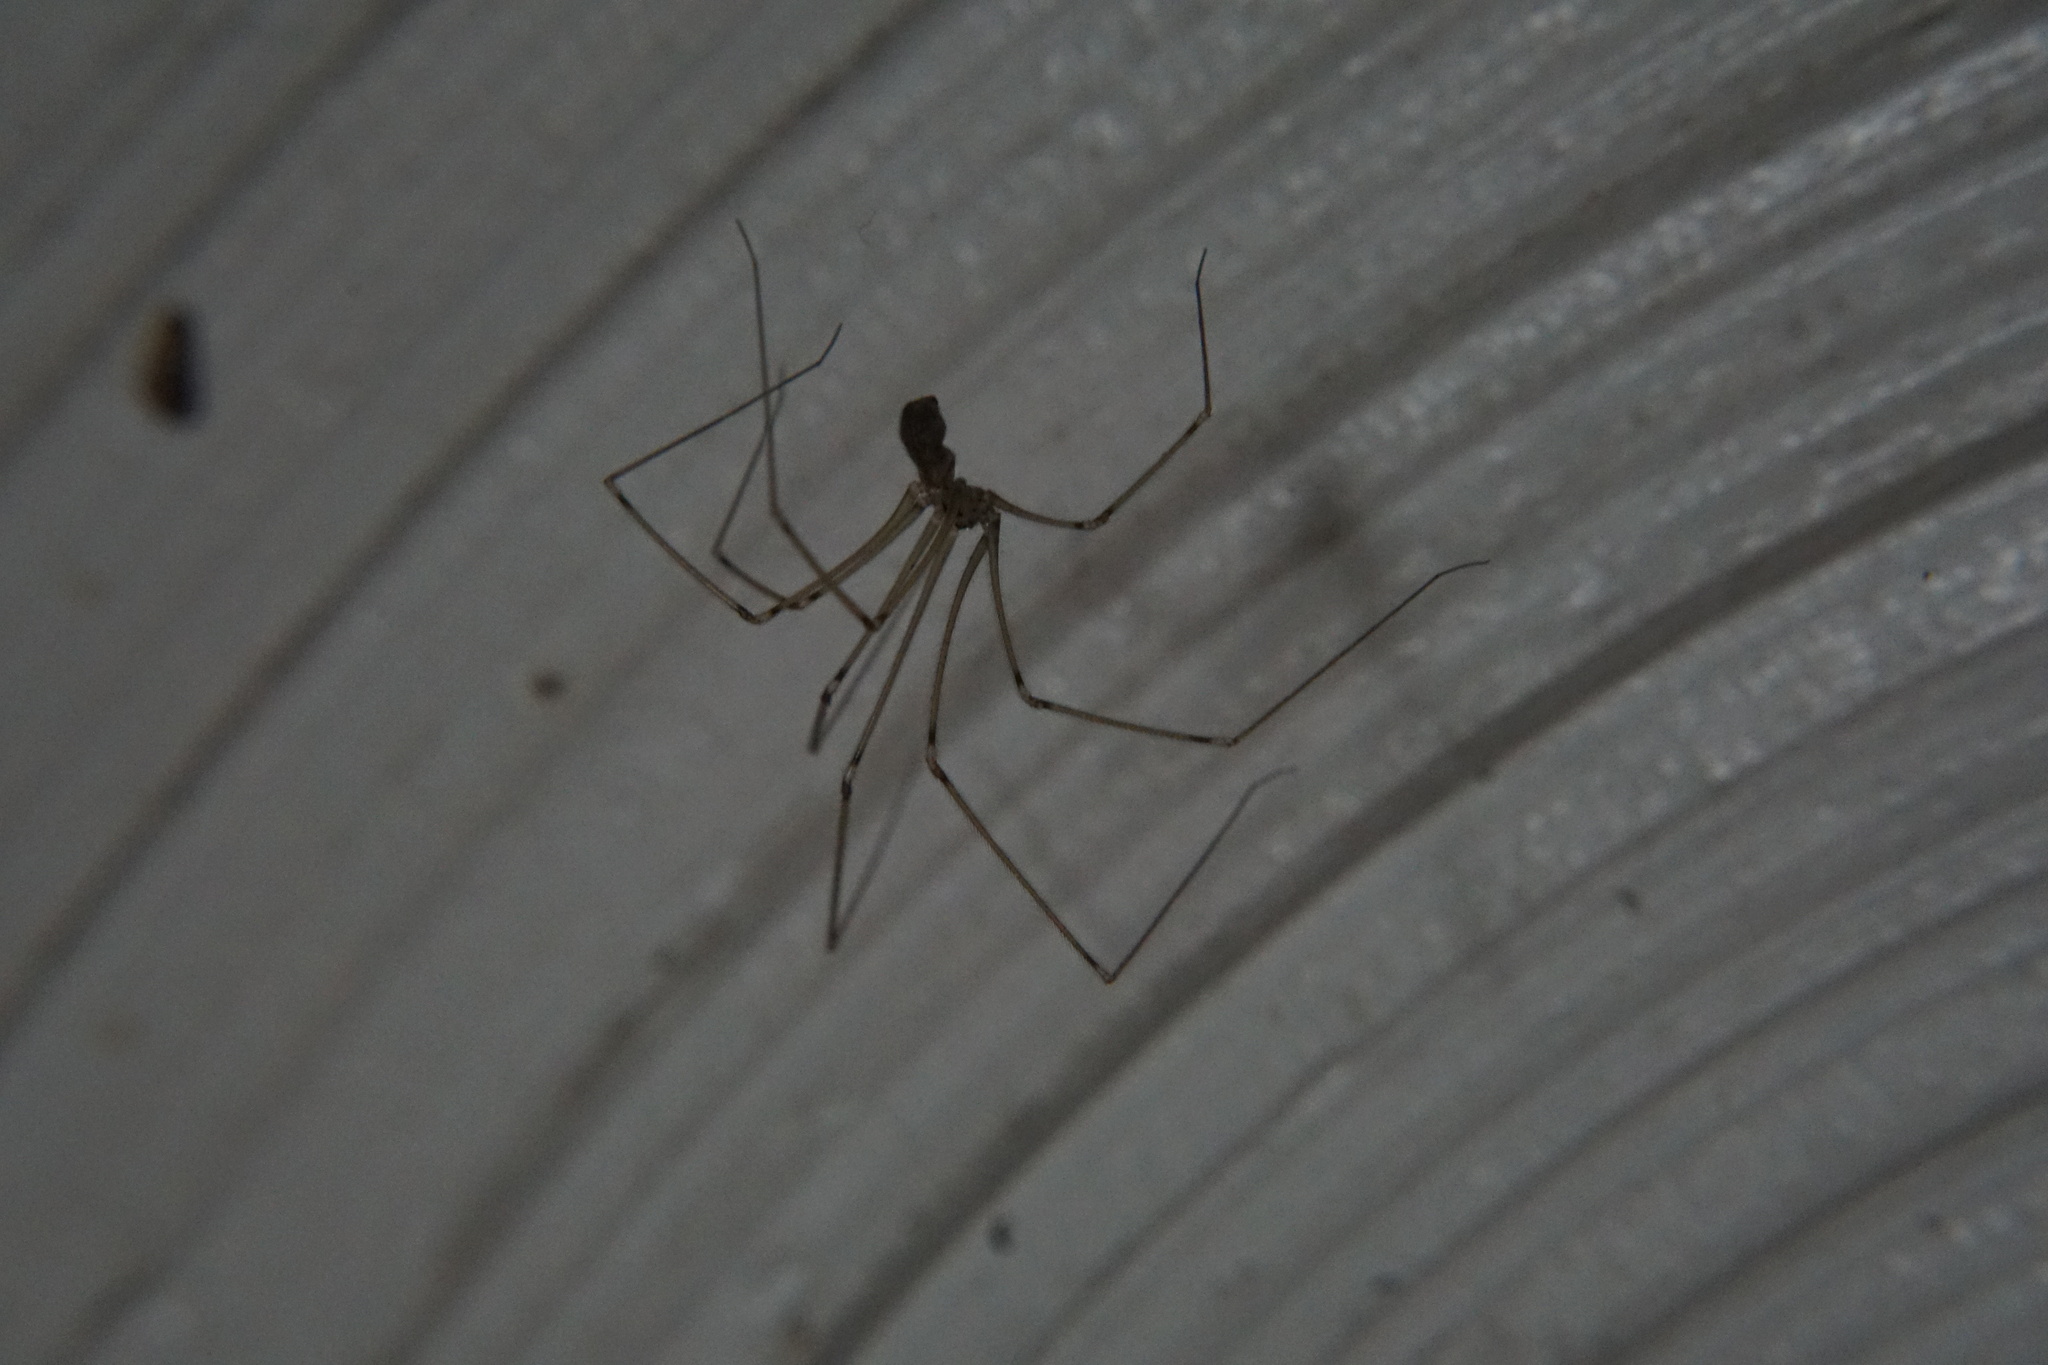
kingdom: Animalia
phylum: Arthropoda
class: Arachnida
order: Araneae
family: Pholcidae
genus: Pholcus
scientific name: Pholcus
